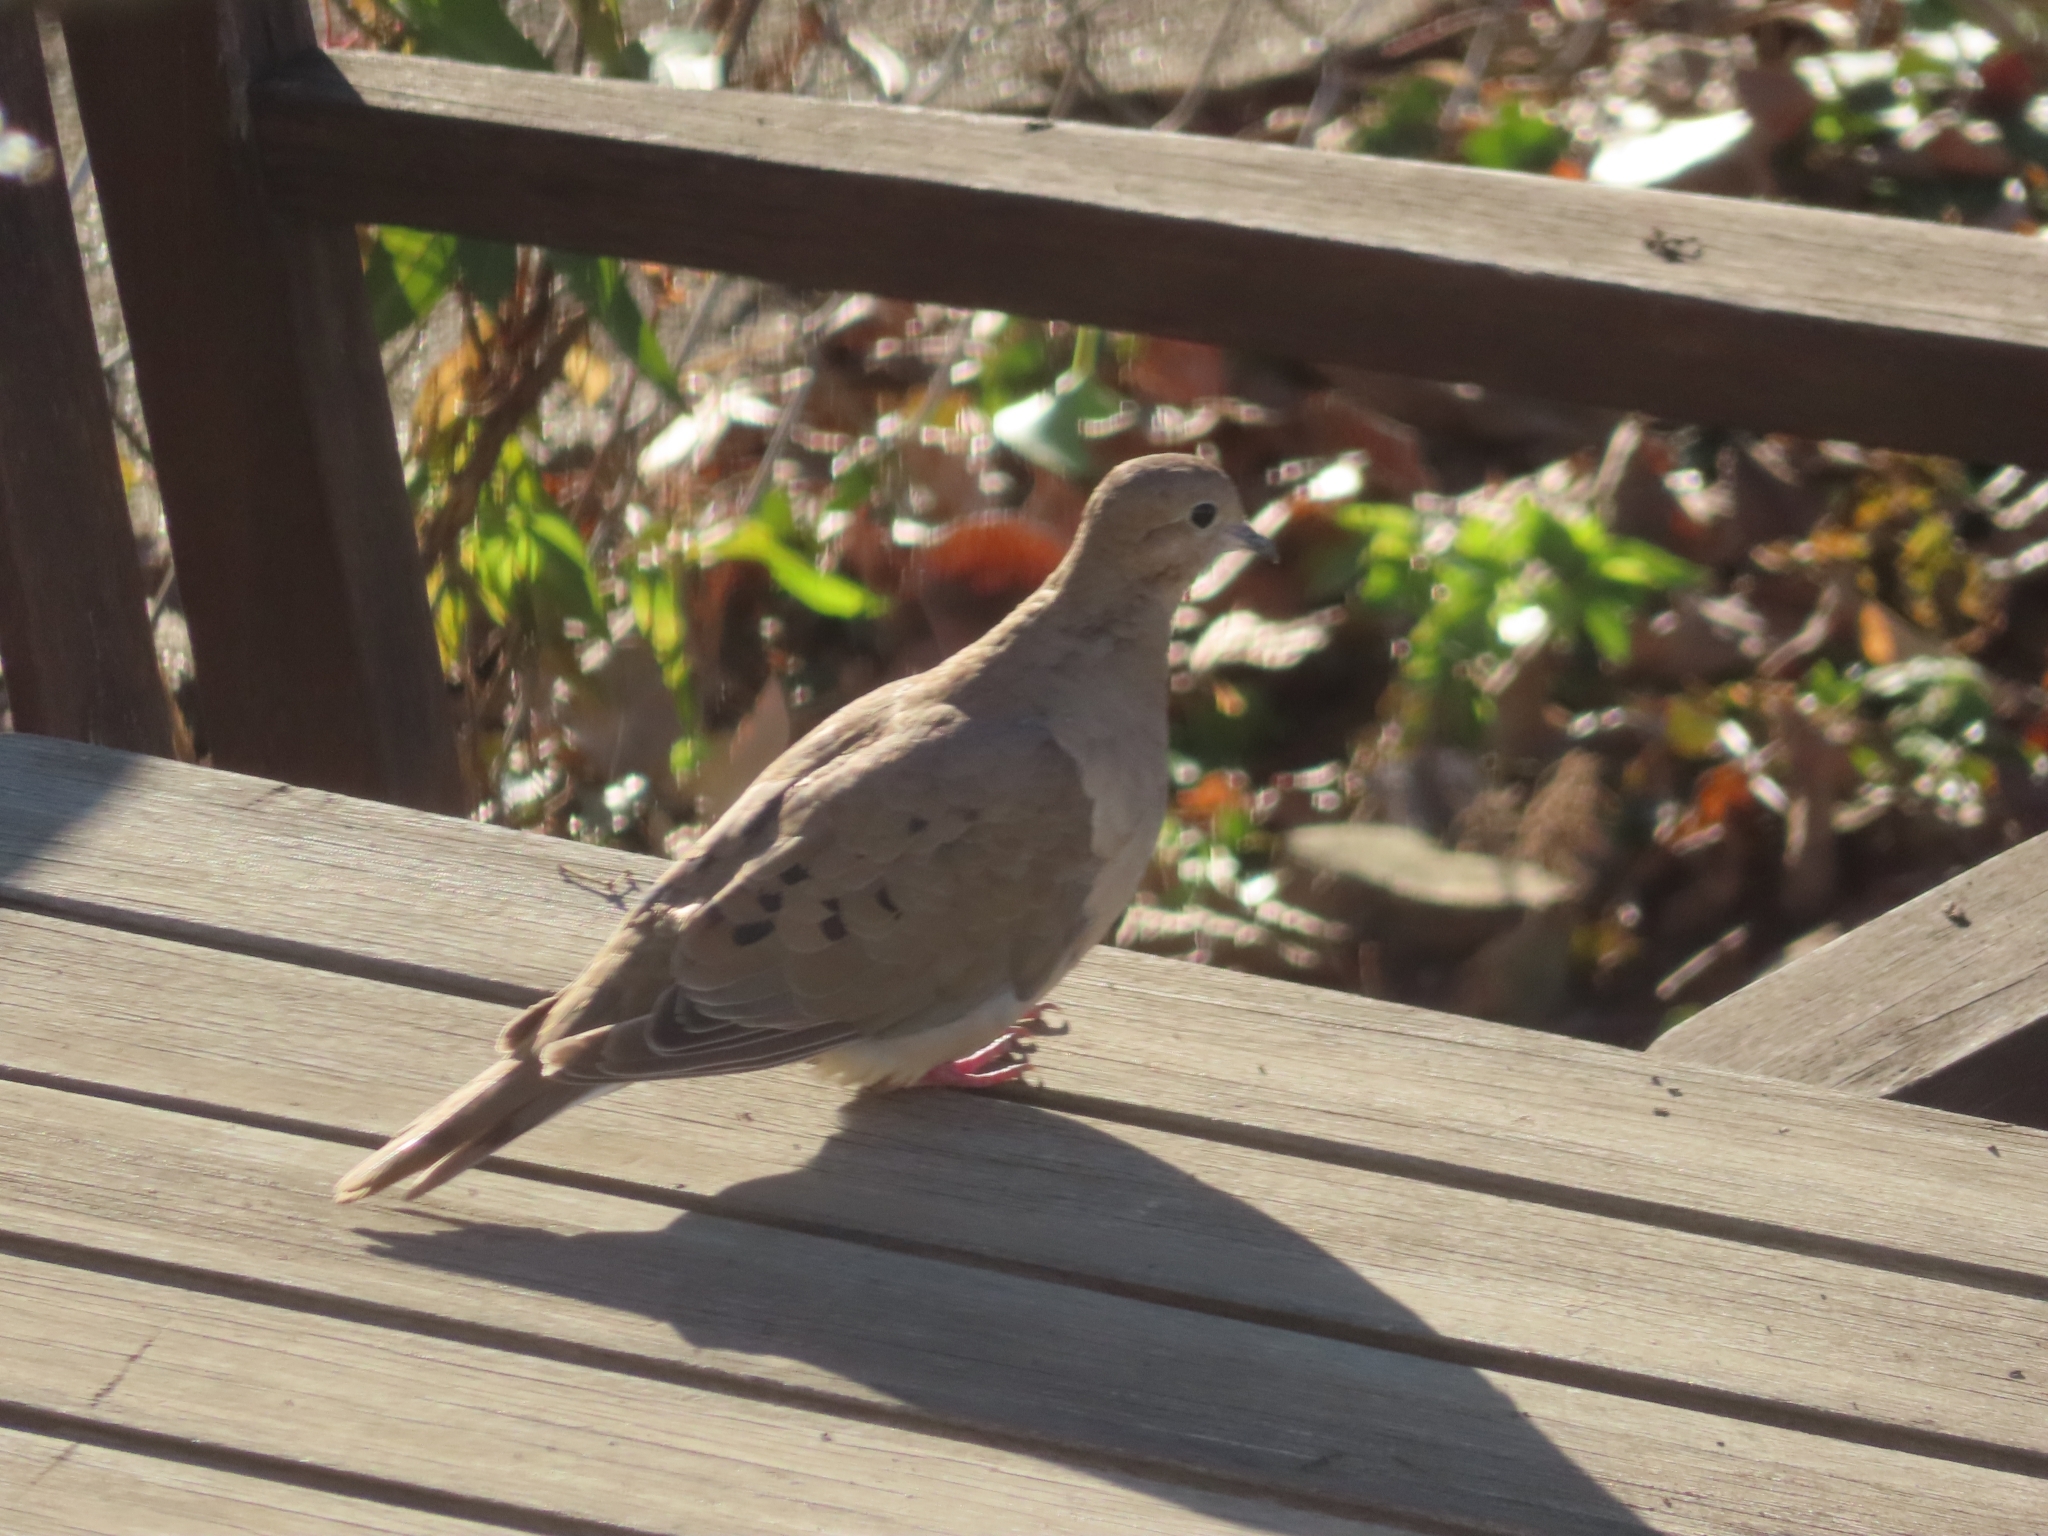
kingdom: Animalia
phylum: Chordata
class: Aves
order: Columbiformes
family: Columbidae
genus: Zenaida
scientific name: Zenaida macroura
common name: Mourning dove
